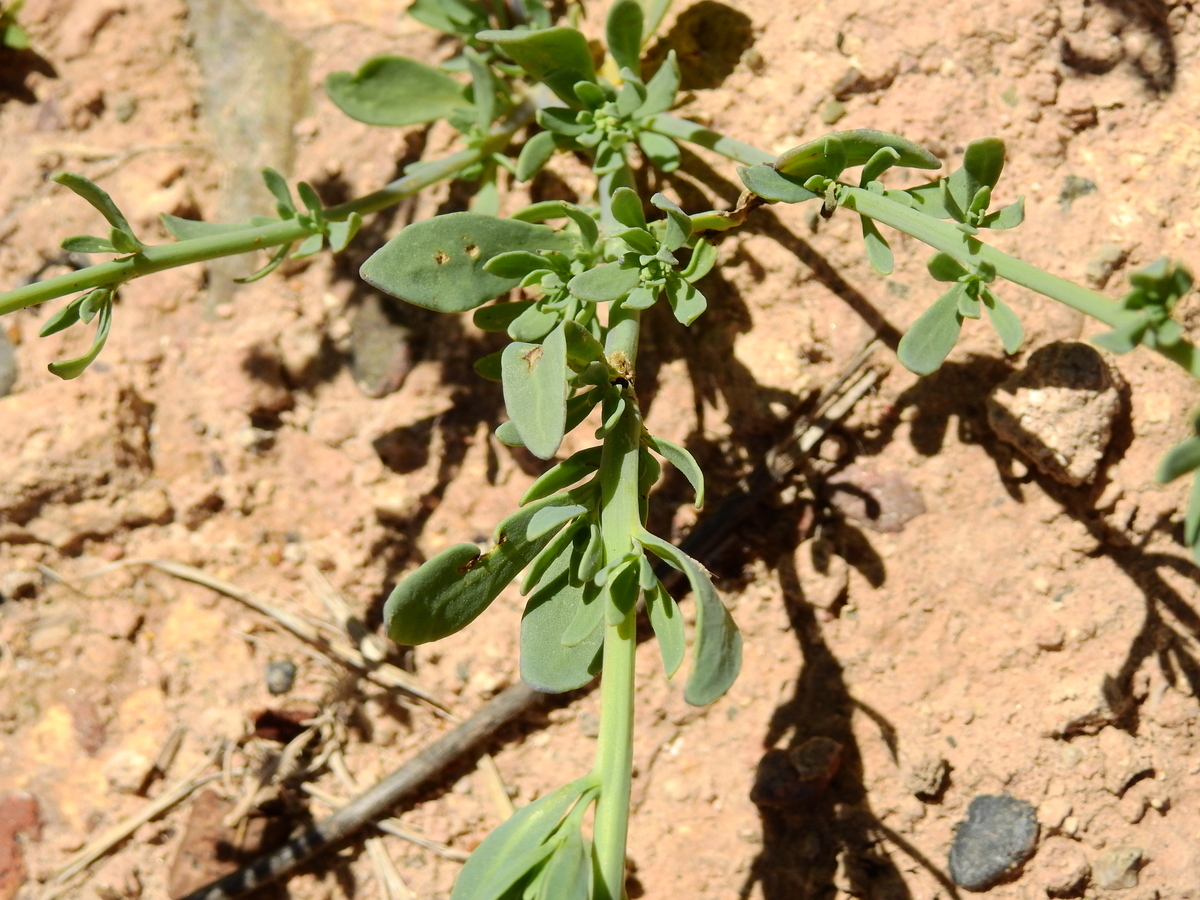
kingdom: Plantae
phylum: Tracheophyta
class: Magnoliopsida
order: Boraginales
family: Heliotropiaceae
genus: Heliotropium
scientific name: Heliotropium curassavicum
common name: Seaside heliotrope
